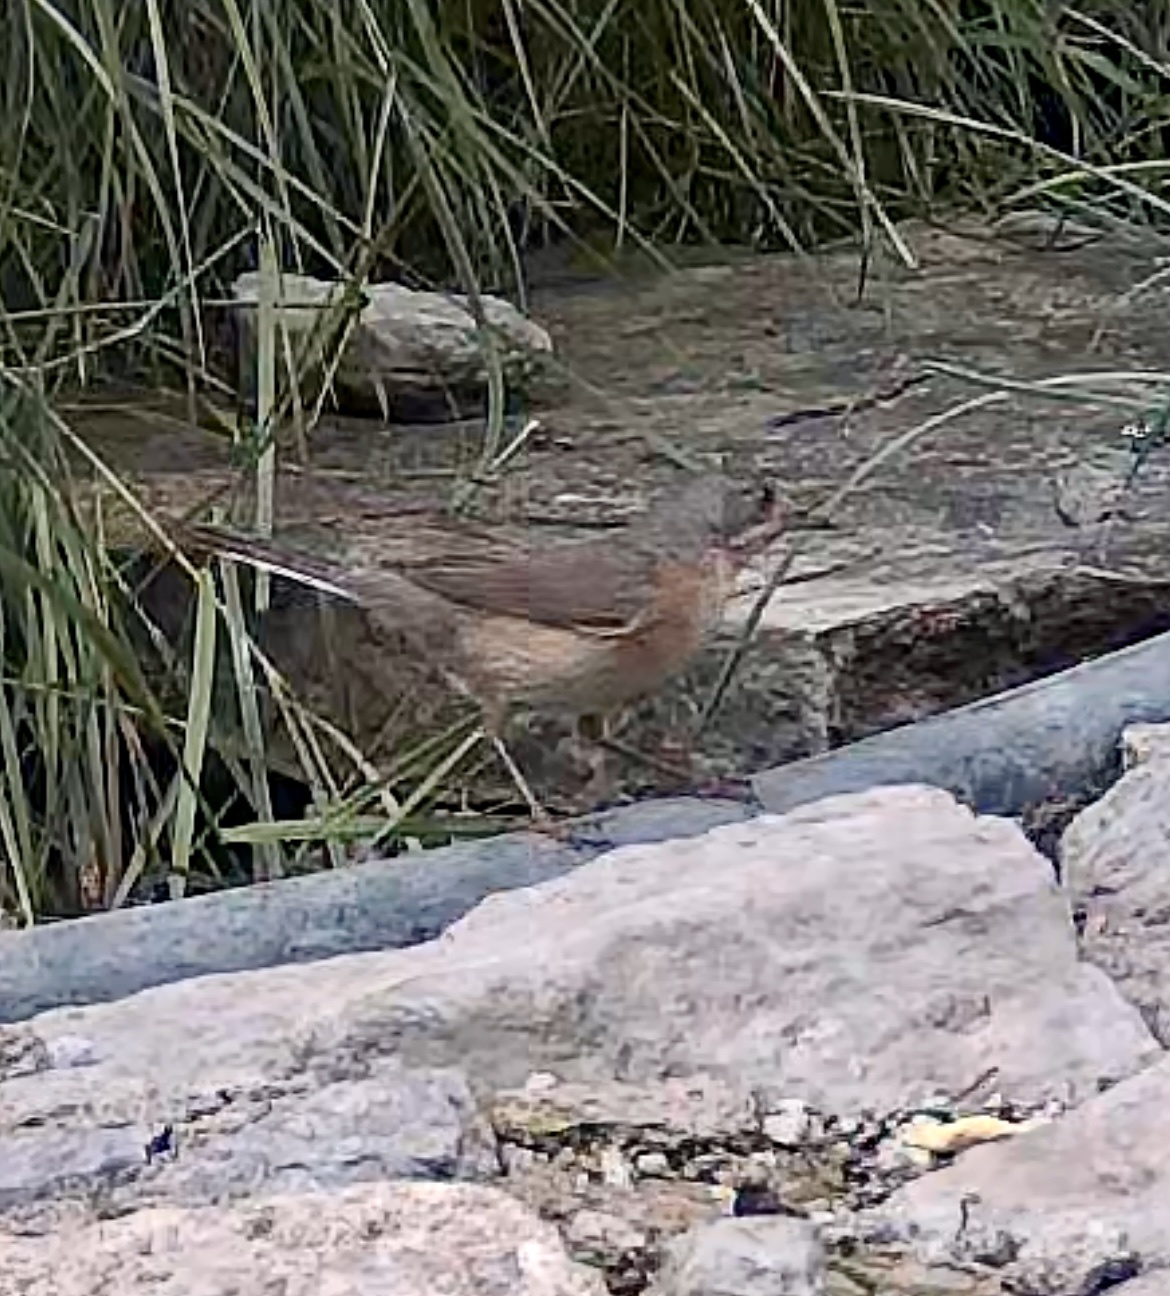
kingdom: Animalia
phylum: Chordata
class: Aves
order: Passeriformes
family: Sylviidae
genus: Curruca
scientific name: Curruca iberiae
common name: Western subalpine warbler
